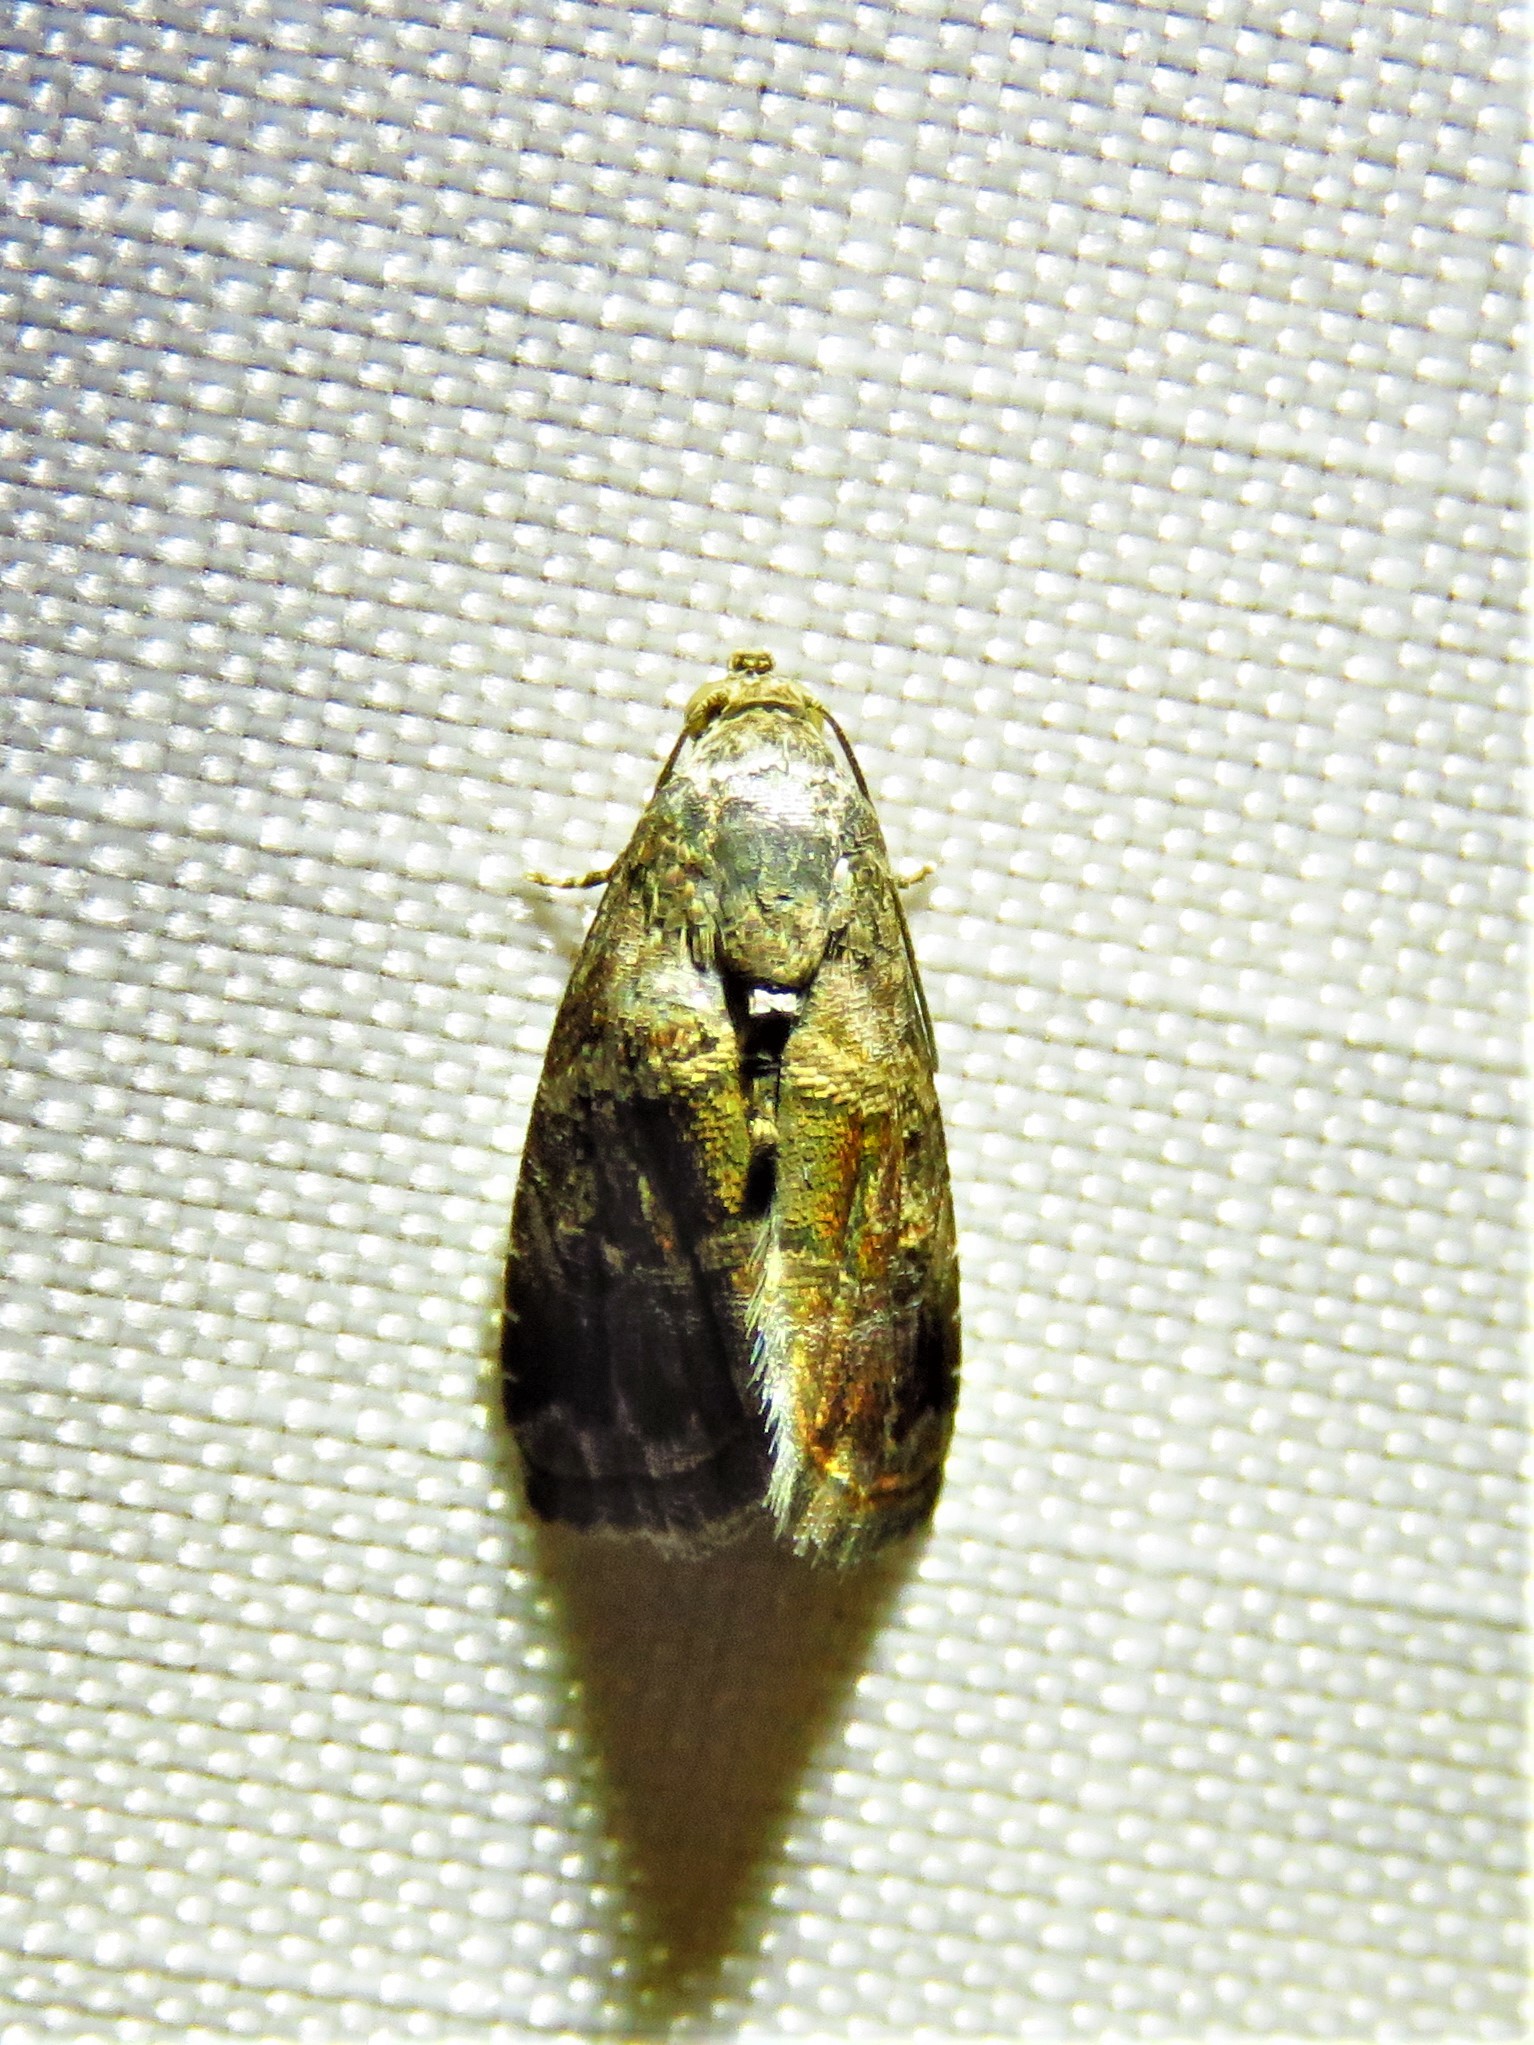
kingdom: Animalia
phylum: Arthropoda
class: Insecta
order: Lepidoptera
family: Noctuidae
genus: Tripudia
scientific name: Tripudia quadrifera
